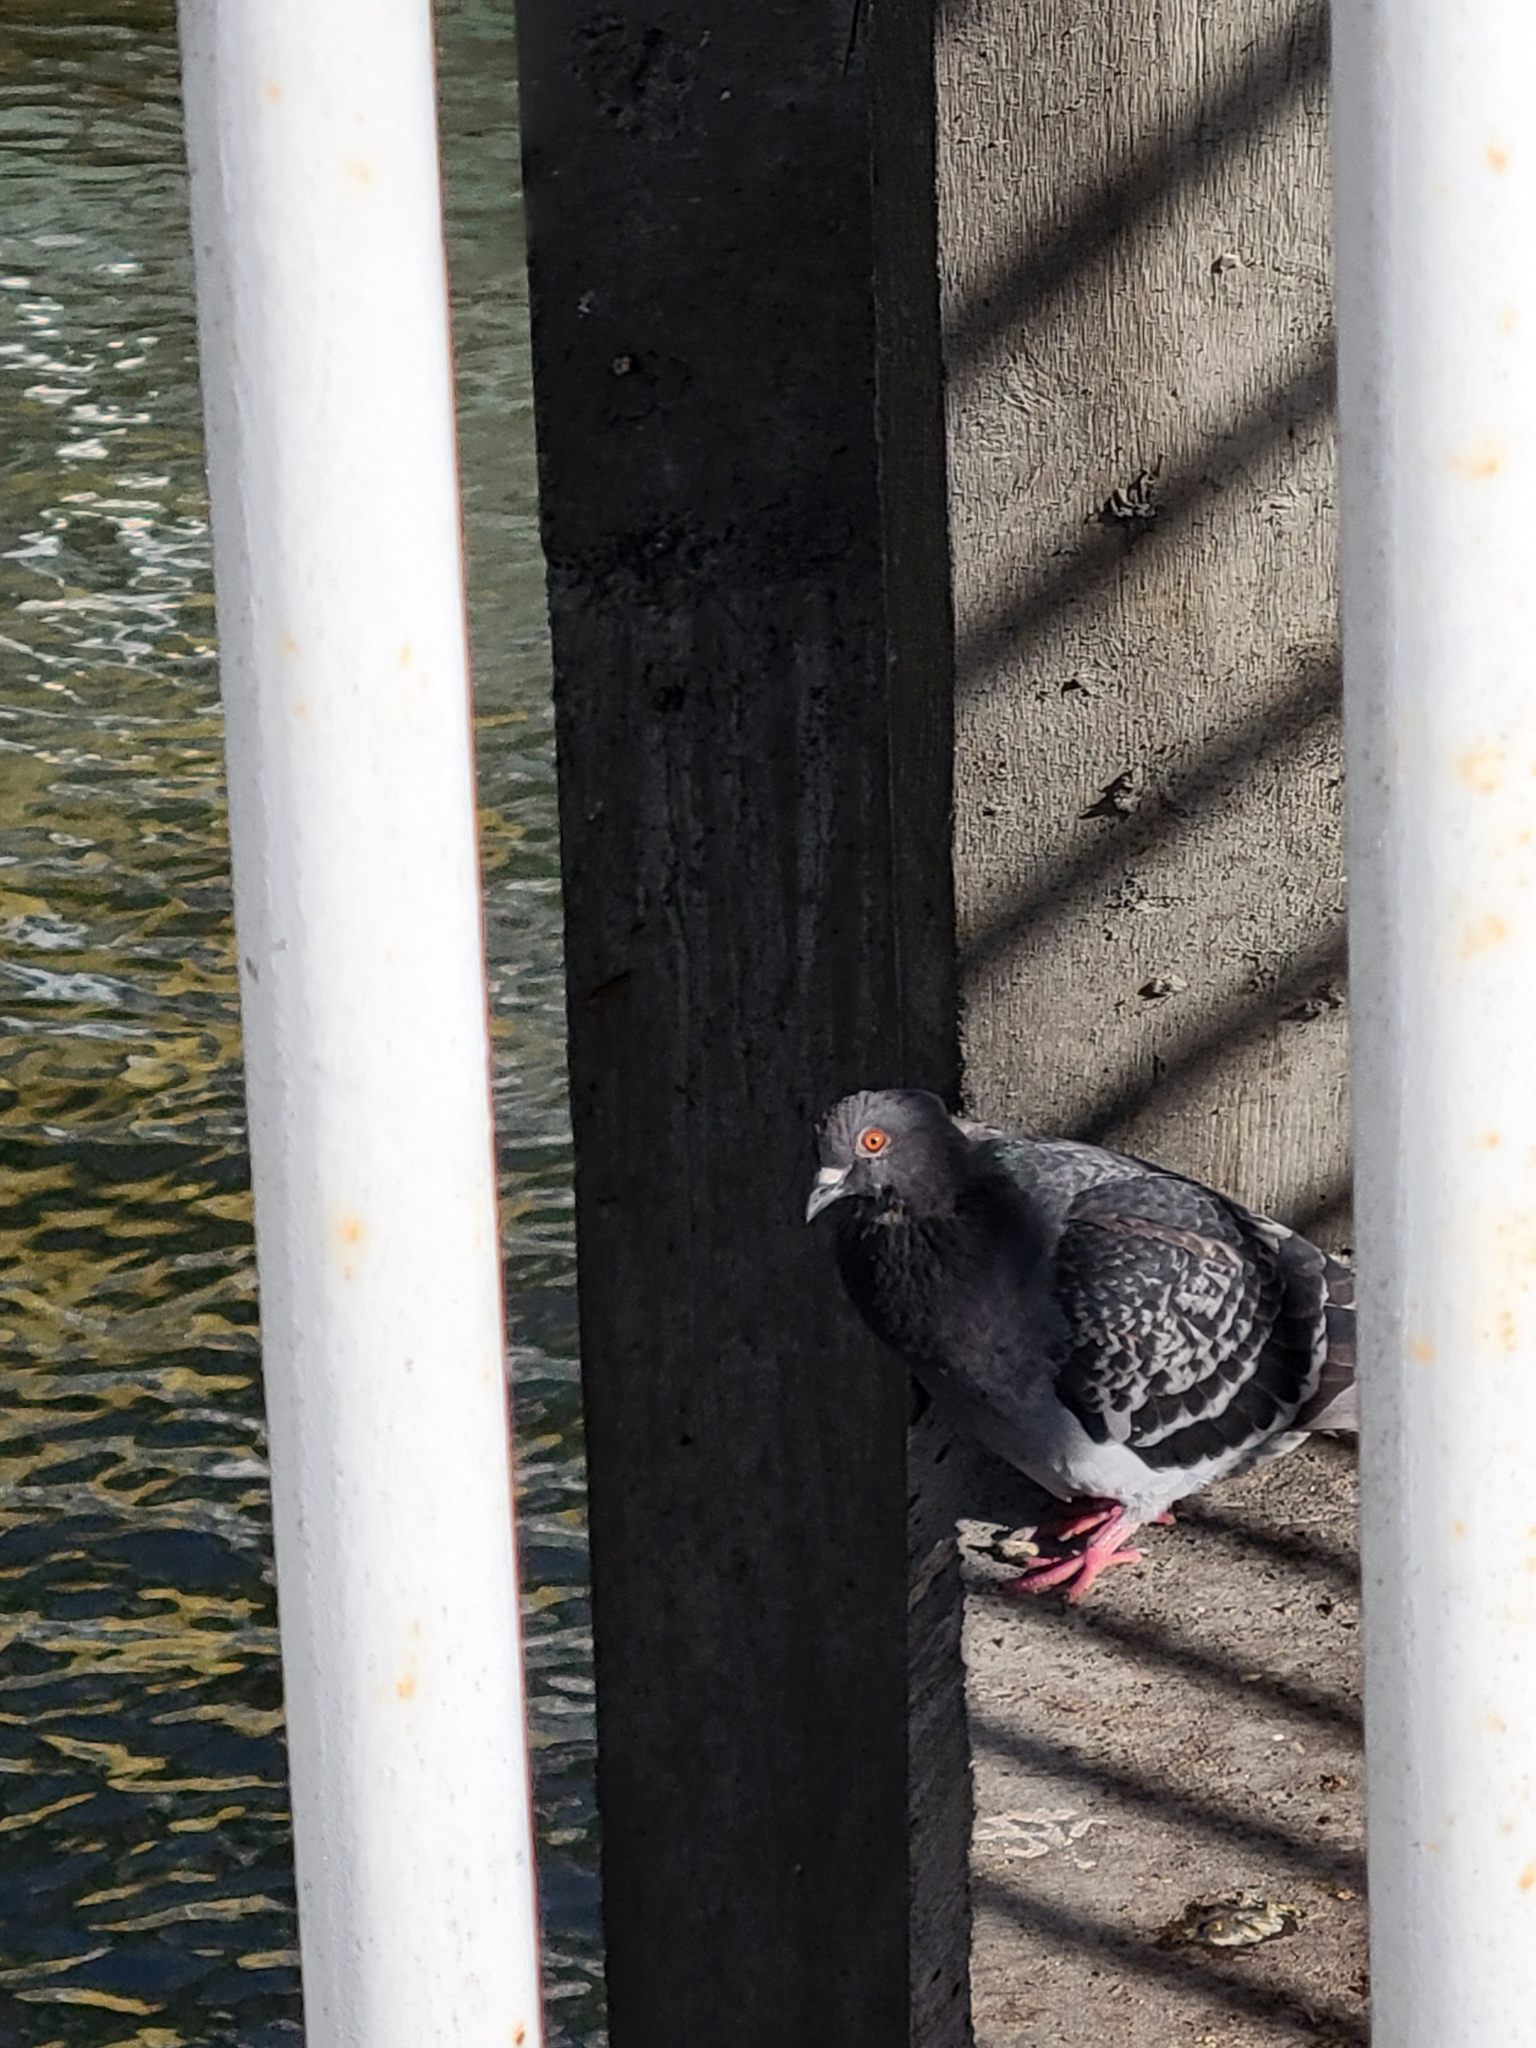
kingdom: Animalia
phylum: Chordata
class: Aves
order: Columbiformes
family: Columbidae
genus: Columba
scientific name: Columba livia
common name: Rock pigeon
